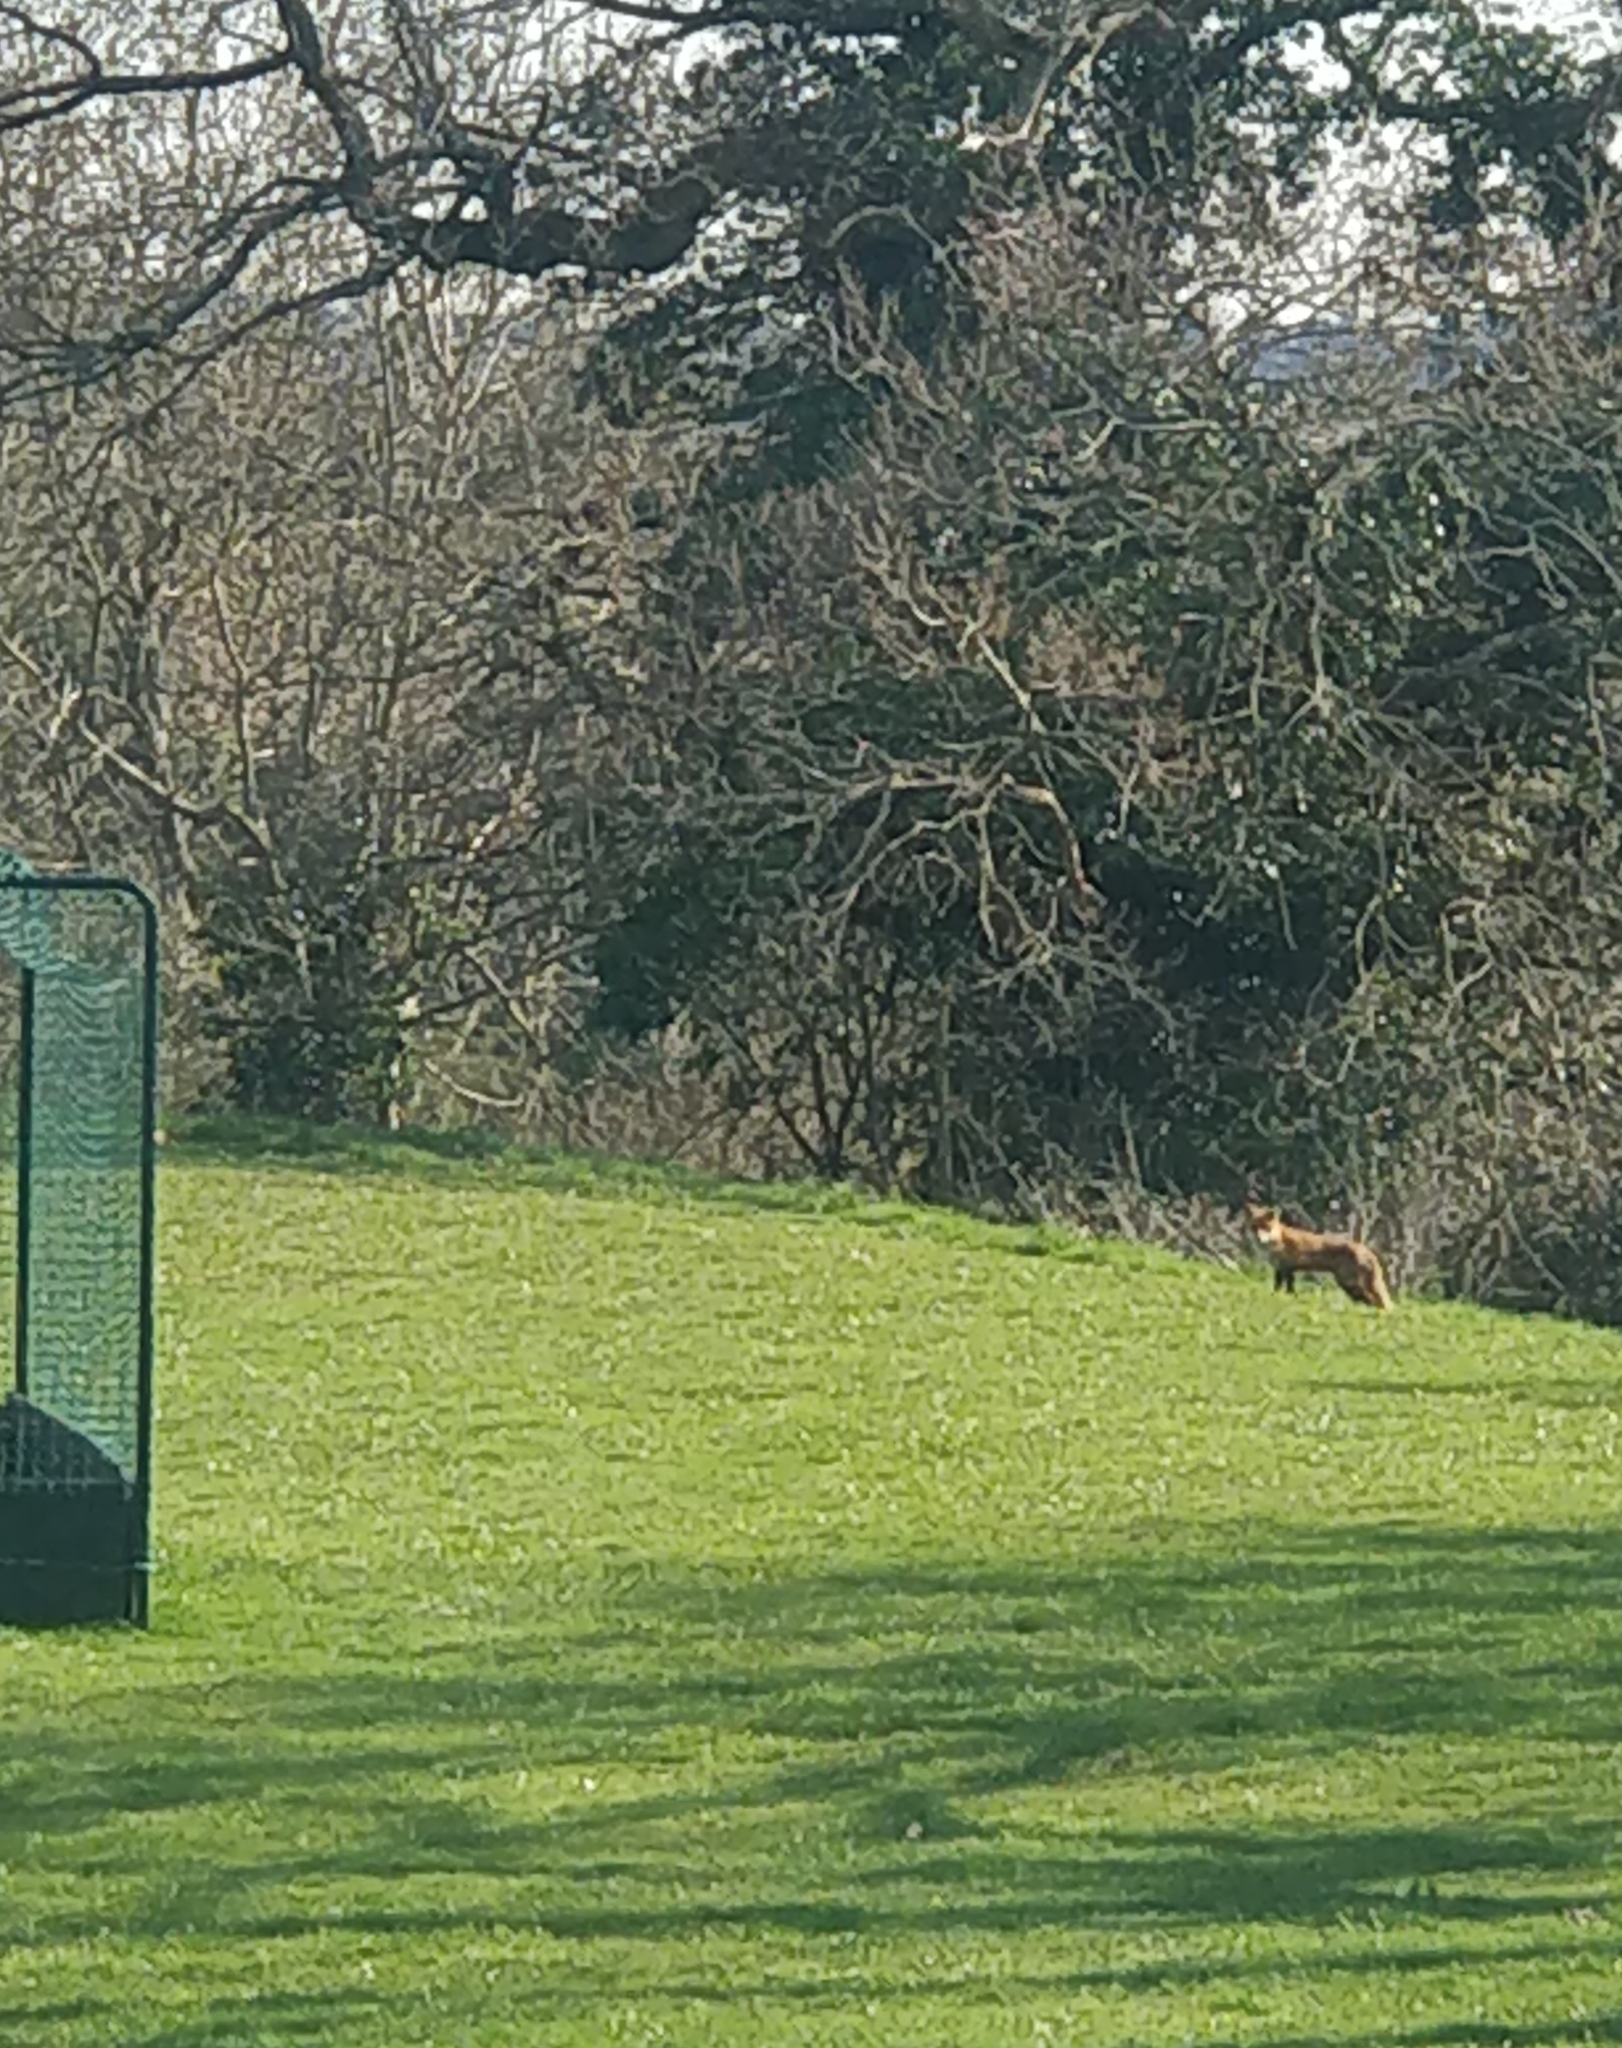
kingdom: Animalia
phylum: Chordata
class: Mammalia
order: Carnivora
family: Canidae
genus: Vulpes
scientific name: Vulpes vulpes
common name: Red fox
